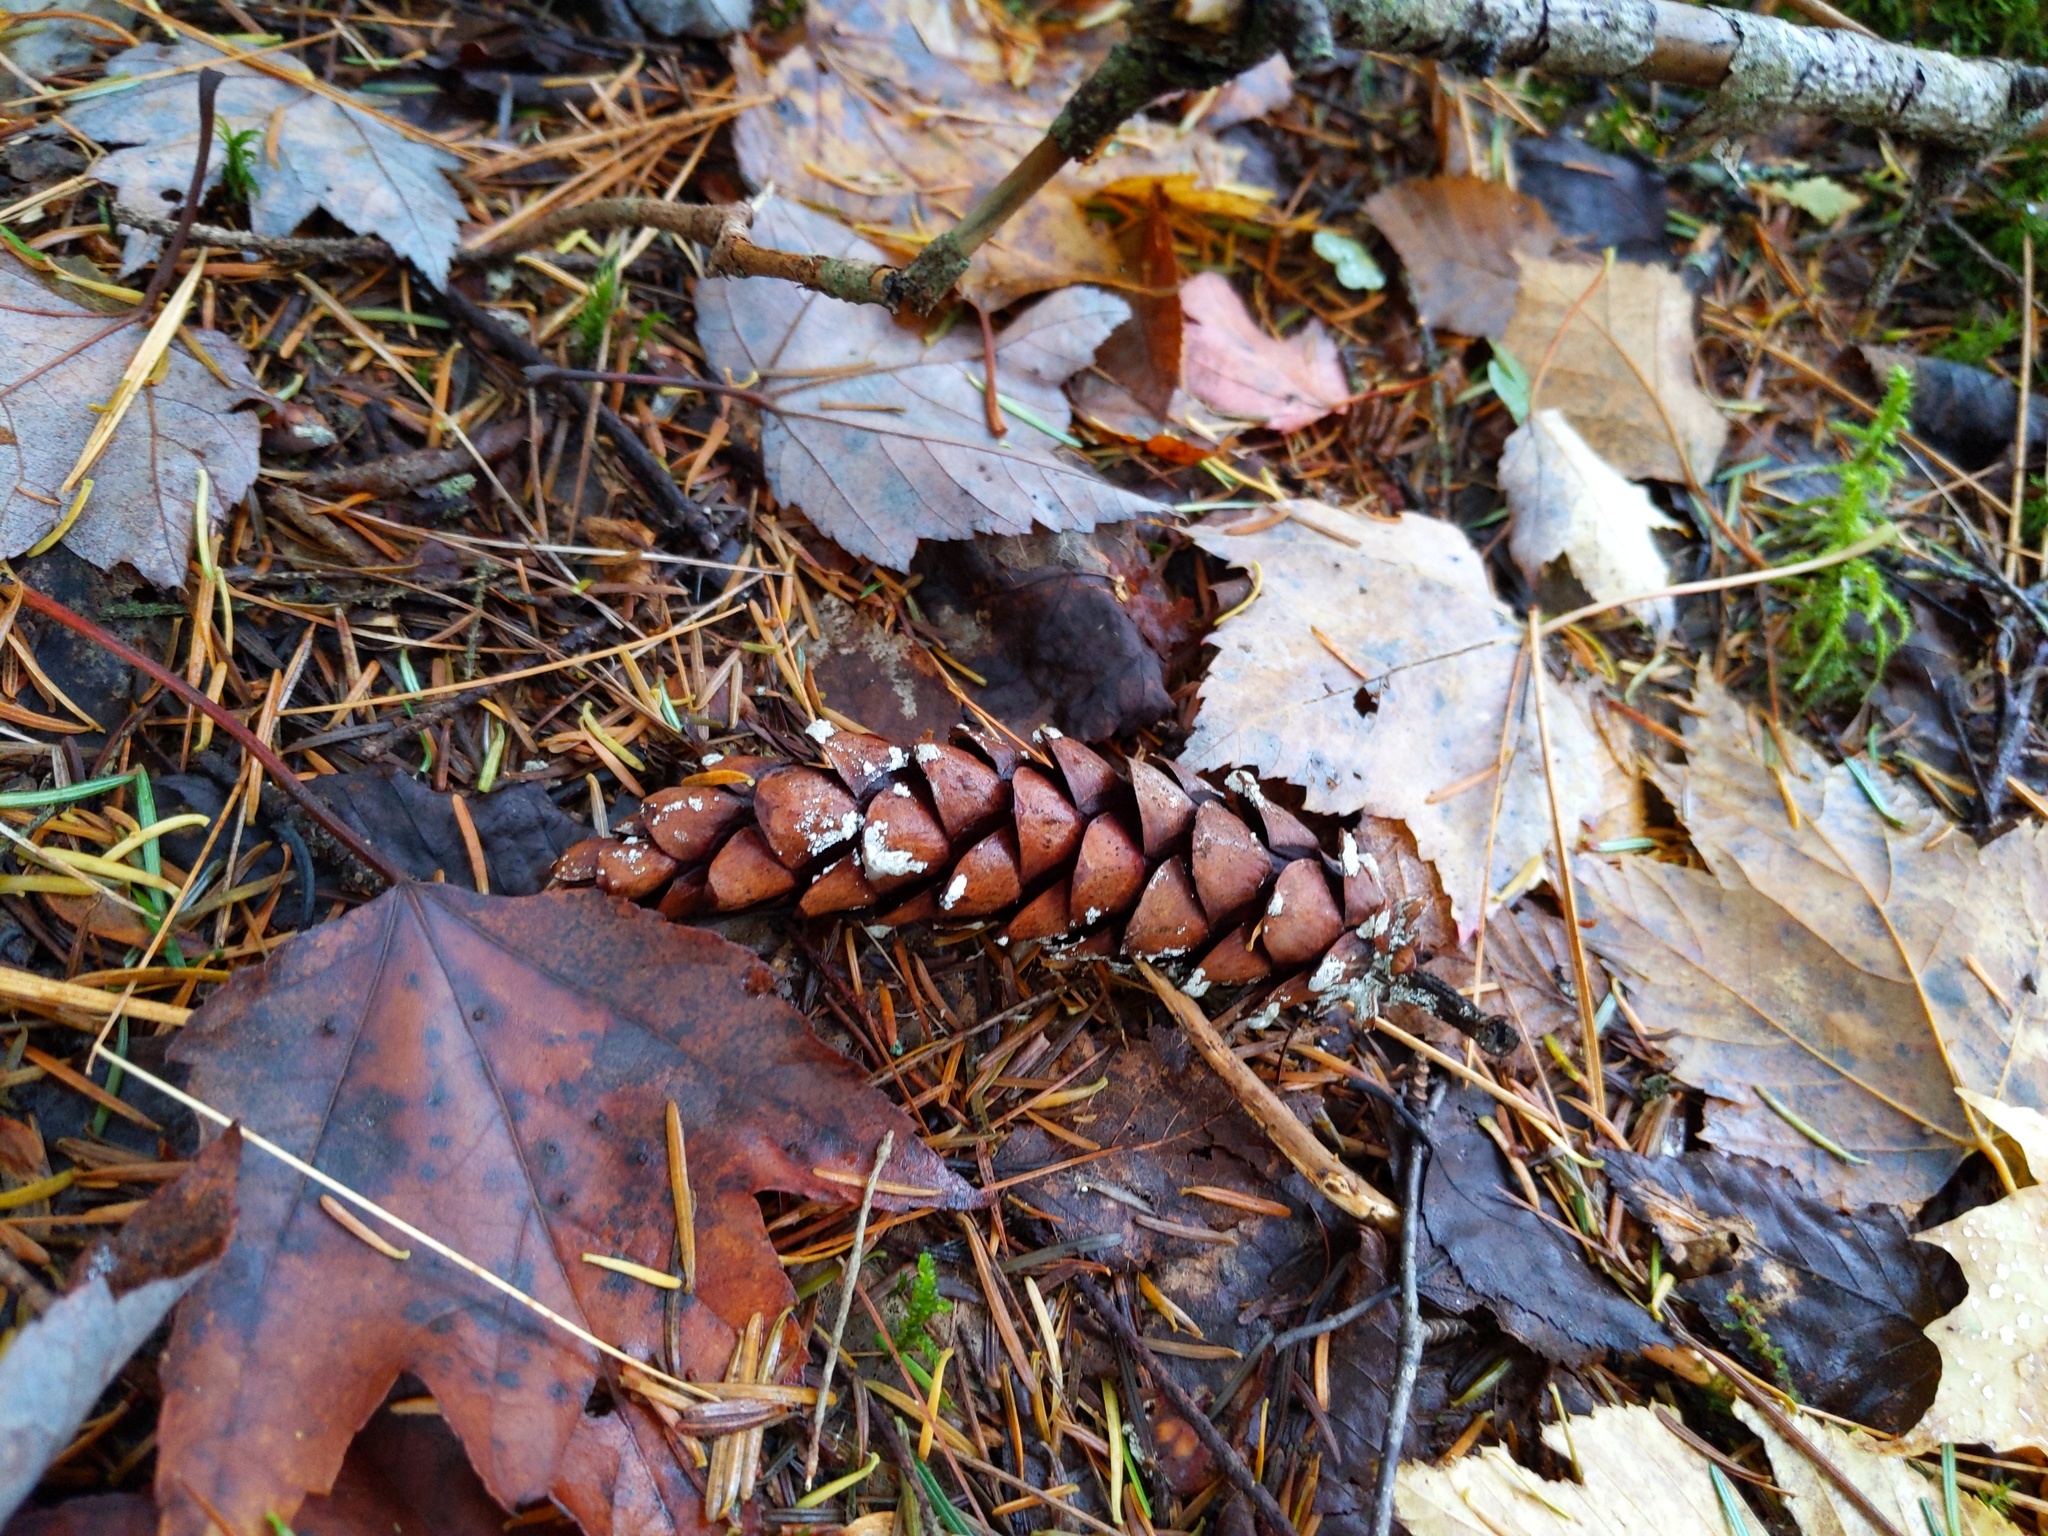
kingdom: Plantae
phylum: Tracheophyta
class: Pinopsida
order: Pinales
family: Pinaceae
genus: Pinus
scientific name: Pinus strobus
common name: Weymouth pine
